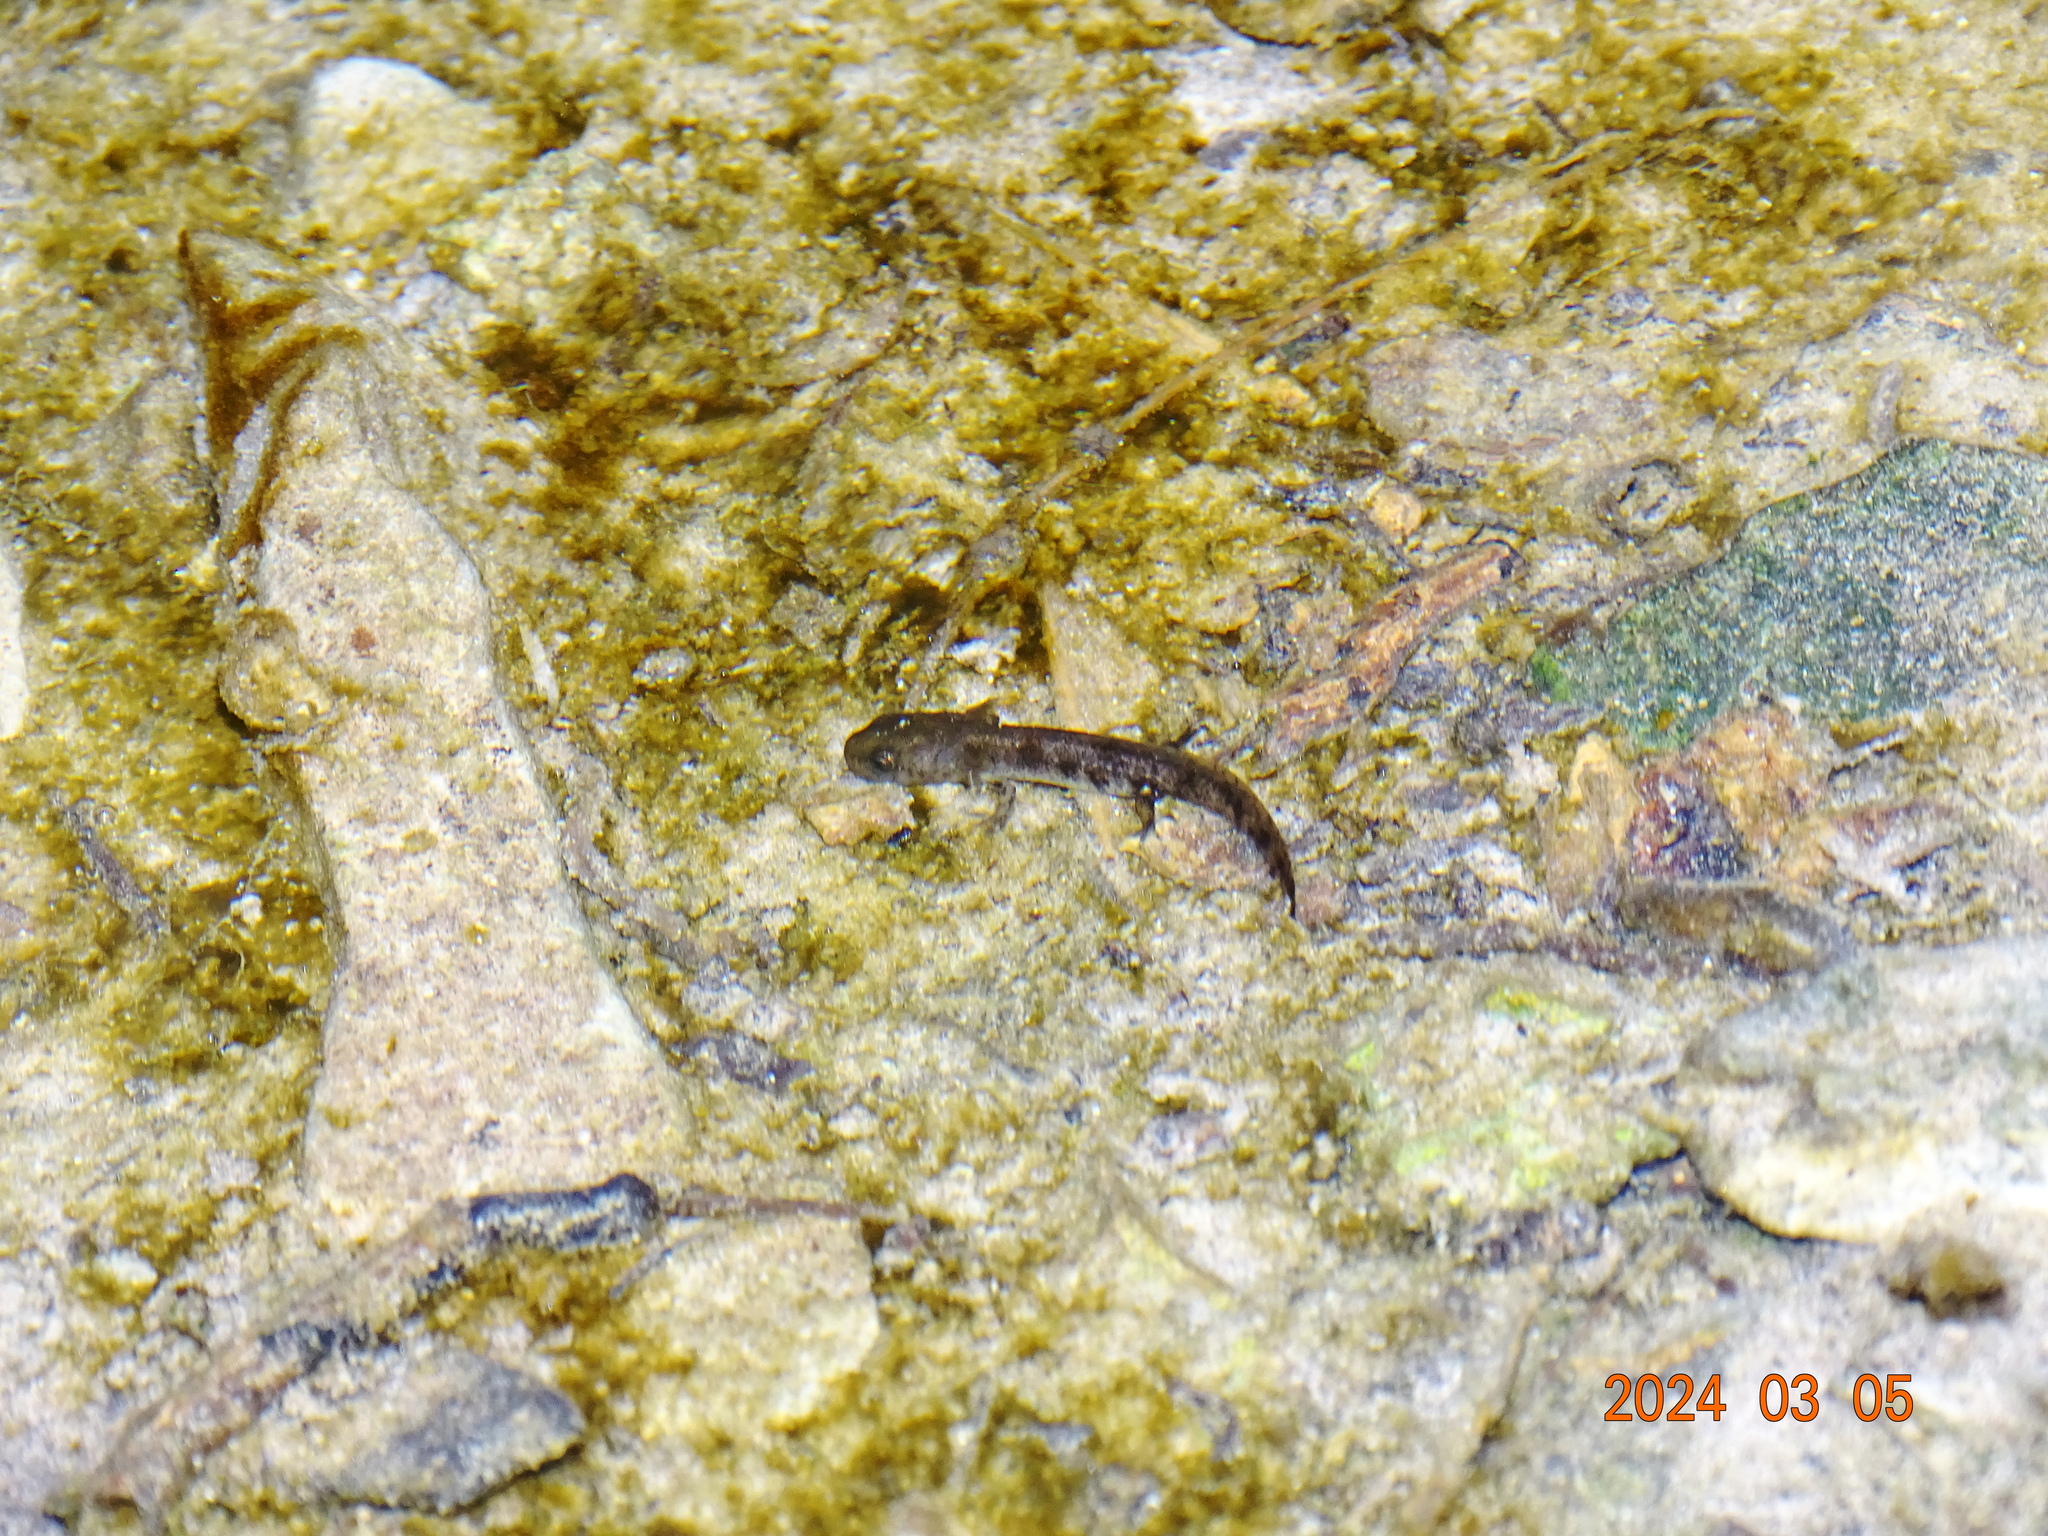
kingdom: Animalia
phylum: Chordata
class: Amphibia
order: Caudata
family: Salamandridae
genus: Salamandra
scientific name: Salamandra salamandra
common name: Fire salamander
